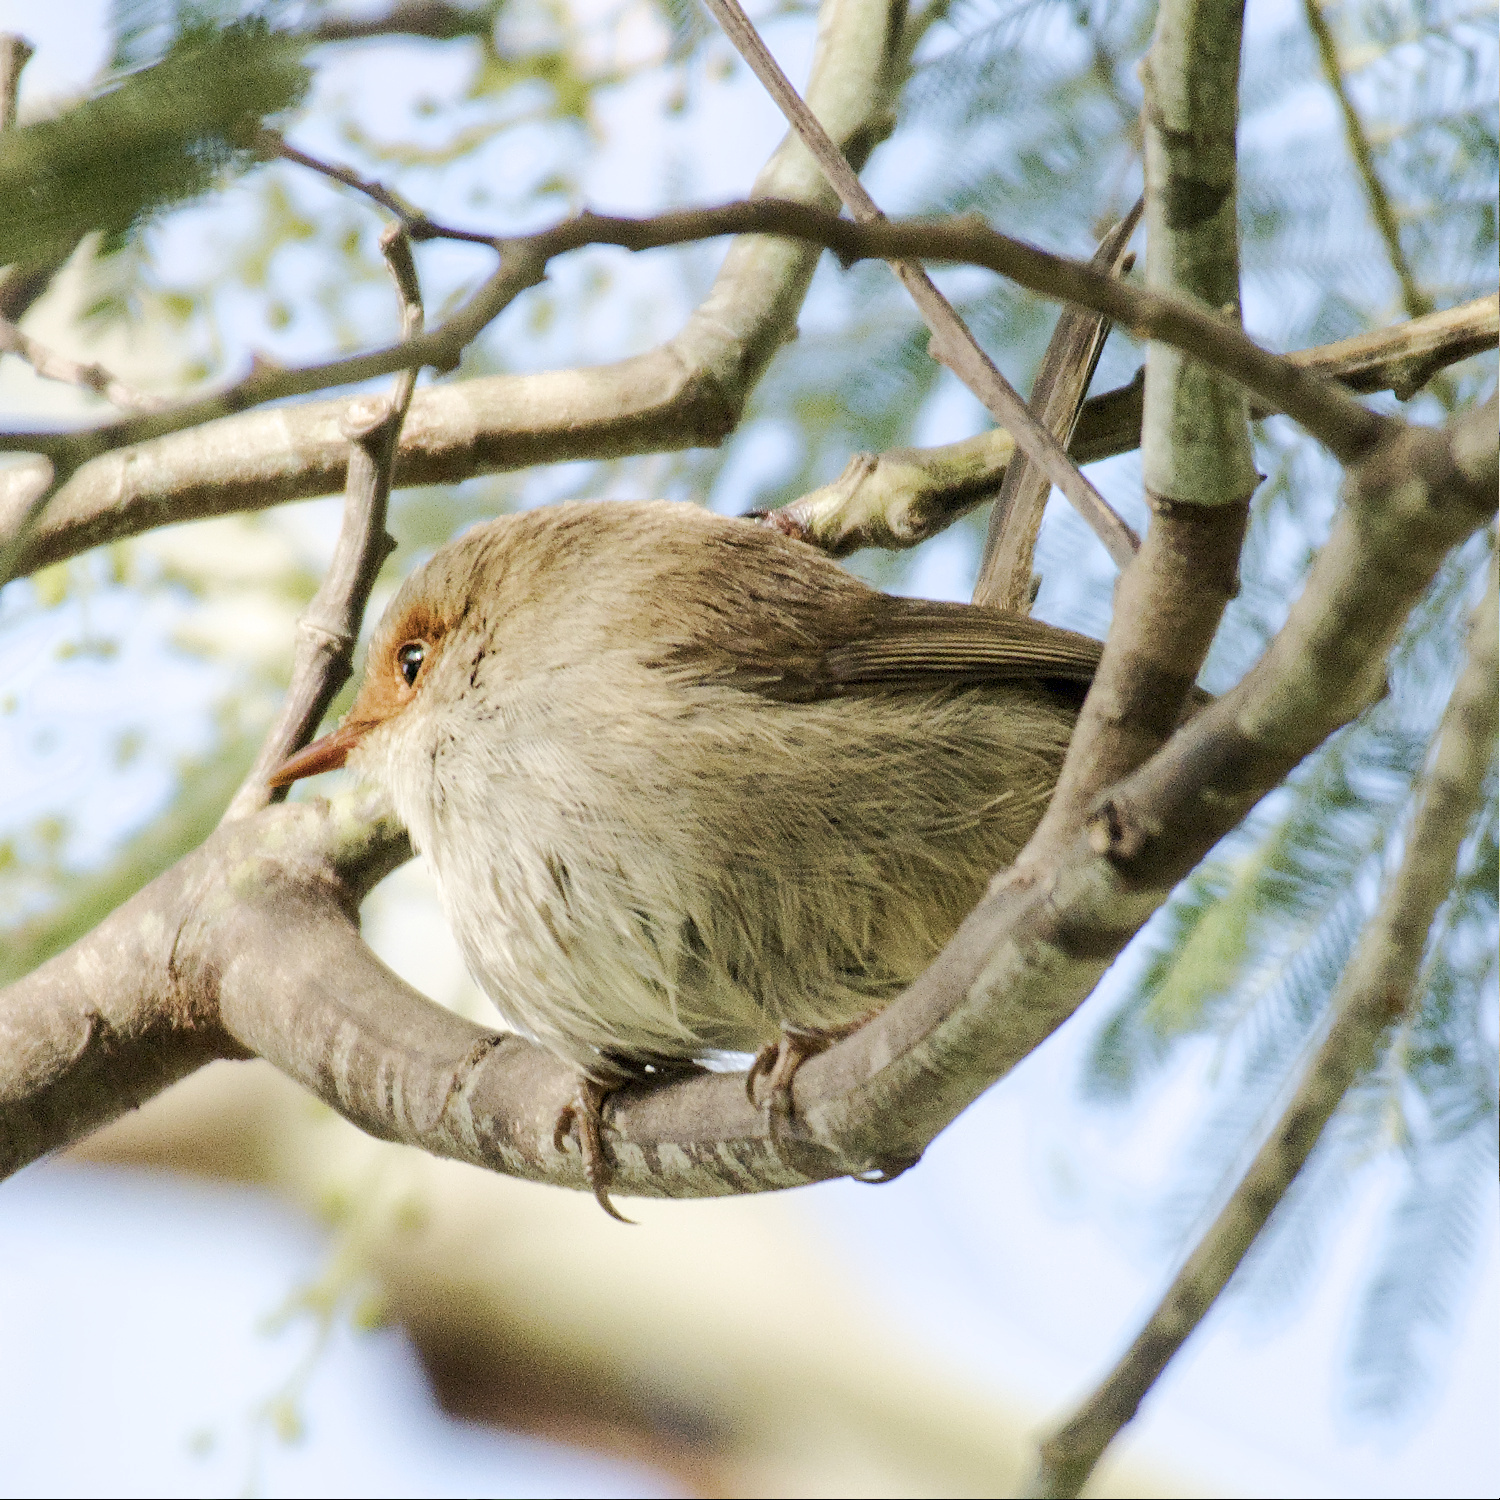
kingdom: Animalia
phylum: Chordata
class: Aves
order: Passeriformes
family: Maluridae
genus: Malurus
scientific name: Malurus cyaneus
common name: Superb fairywren
